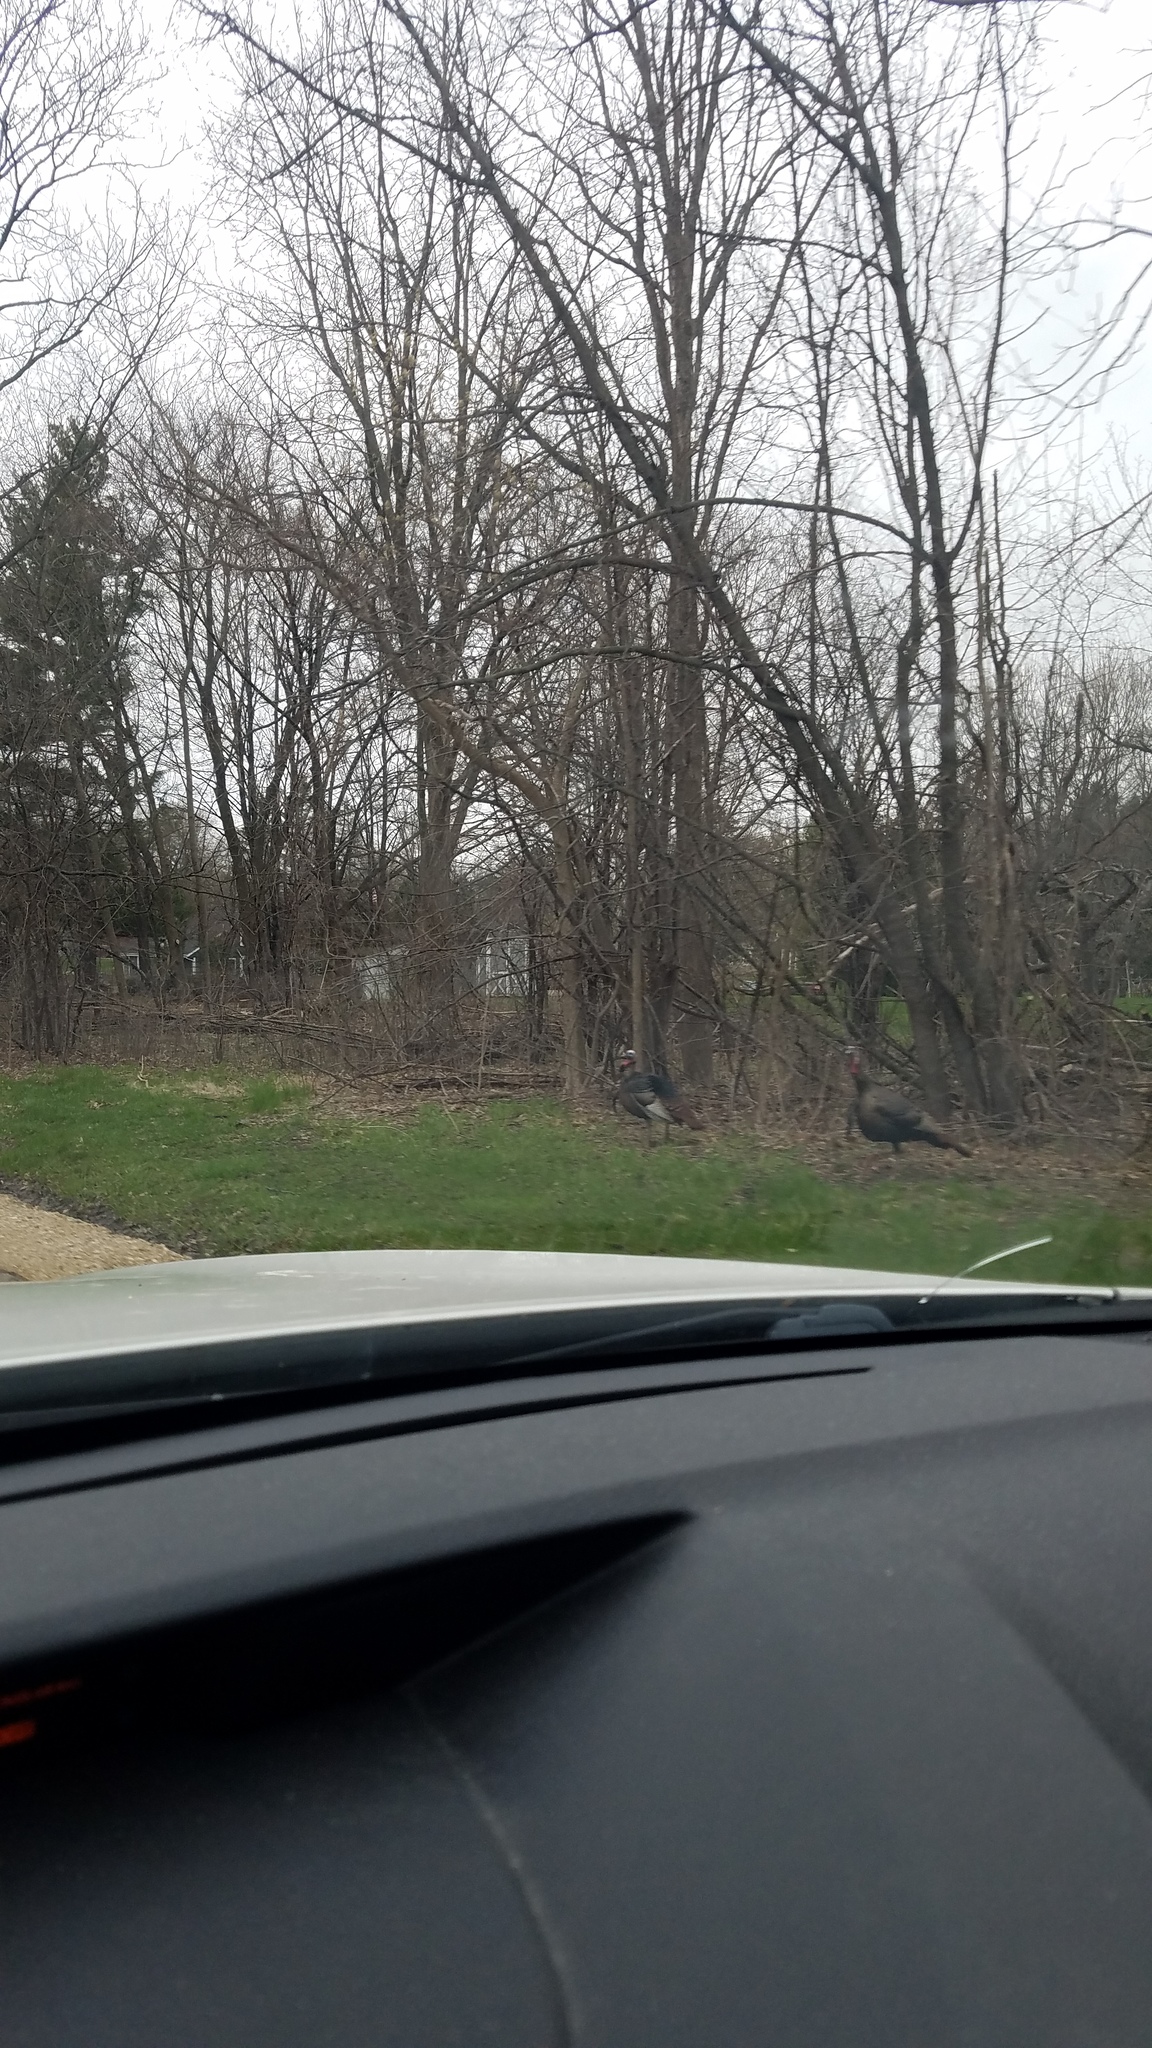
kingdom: Animalia
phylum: Chordata
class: Aves
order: Galliformes
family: Phasianidae
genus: Meleagris
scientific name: Meleagris gallopavo
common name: Wild turkey
